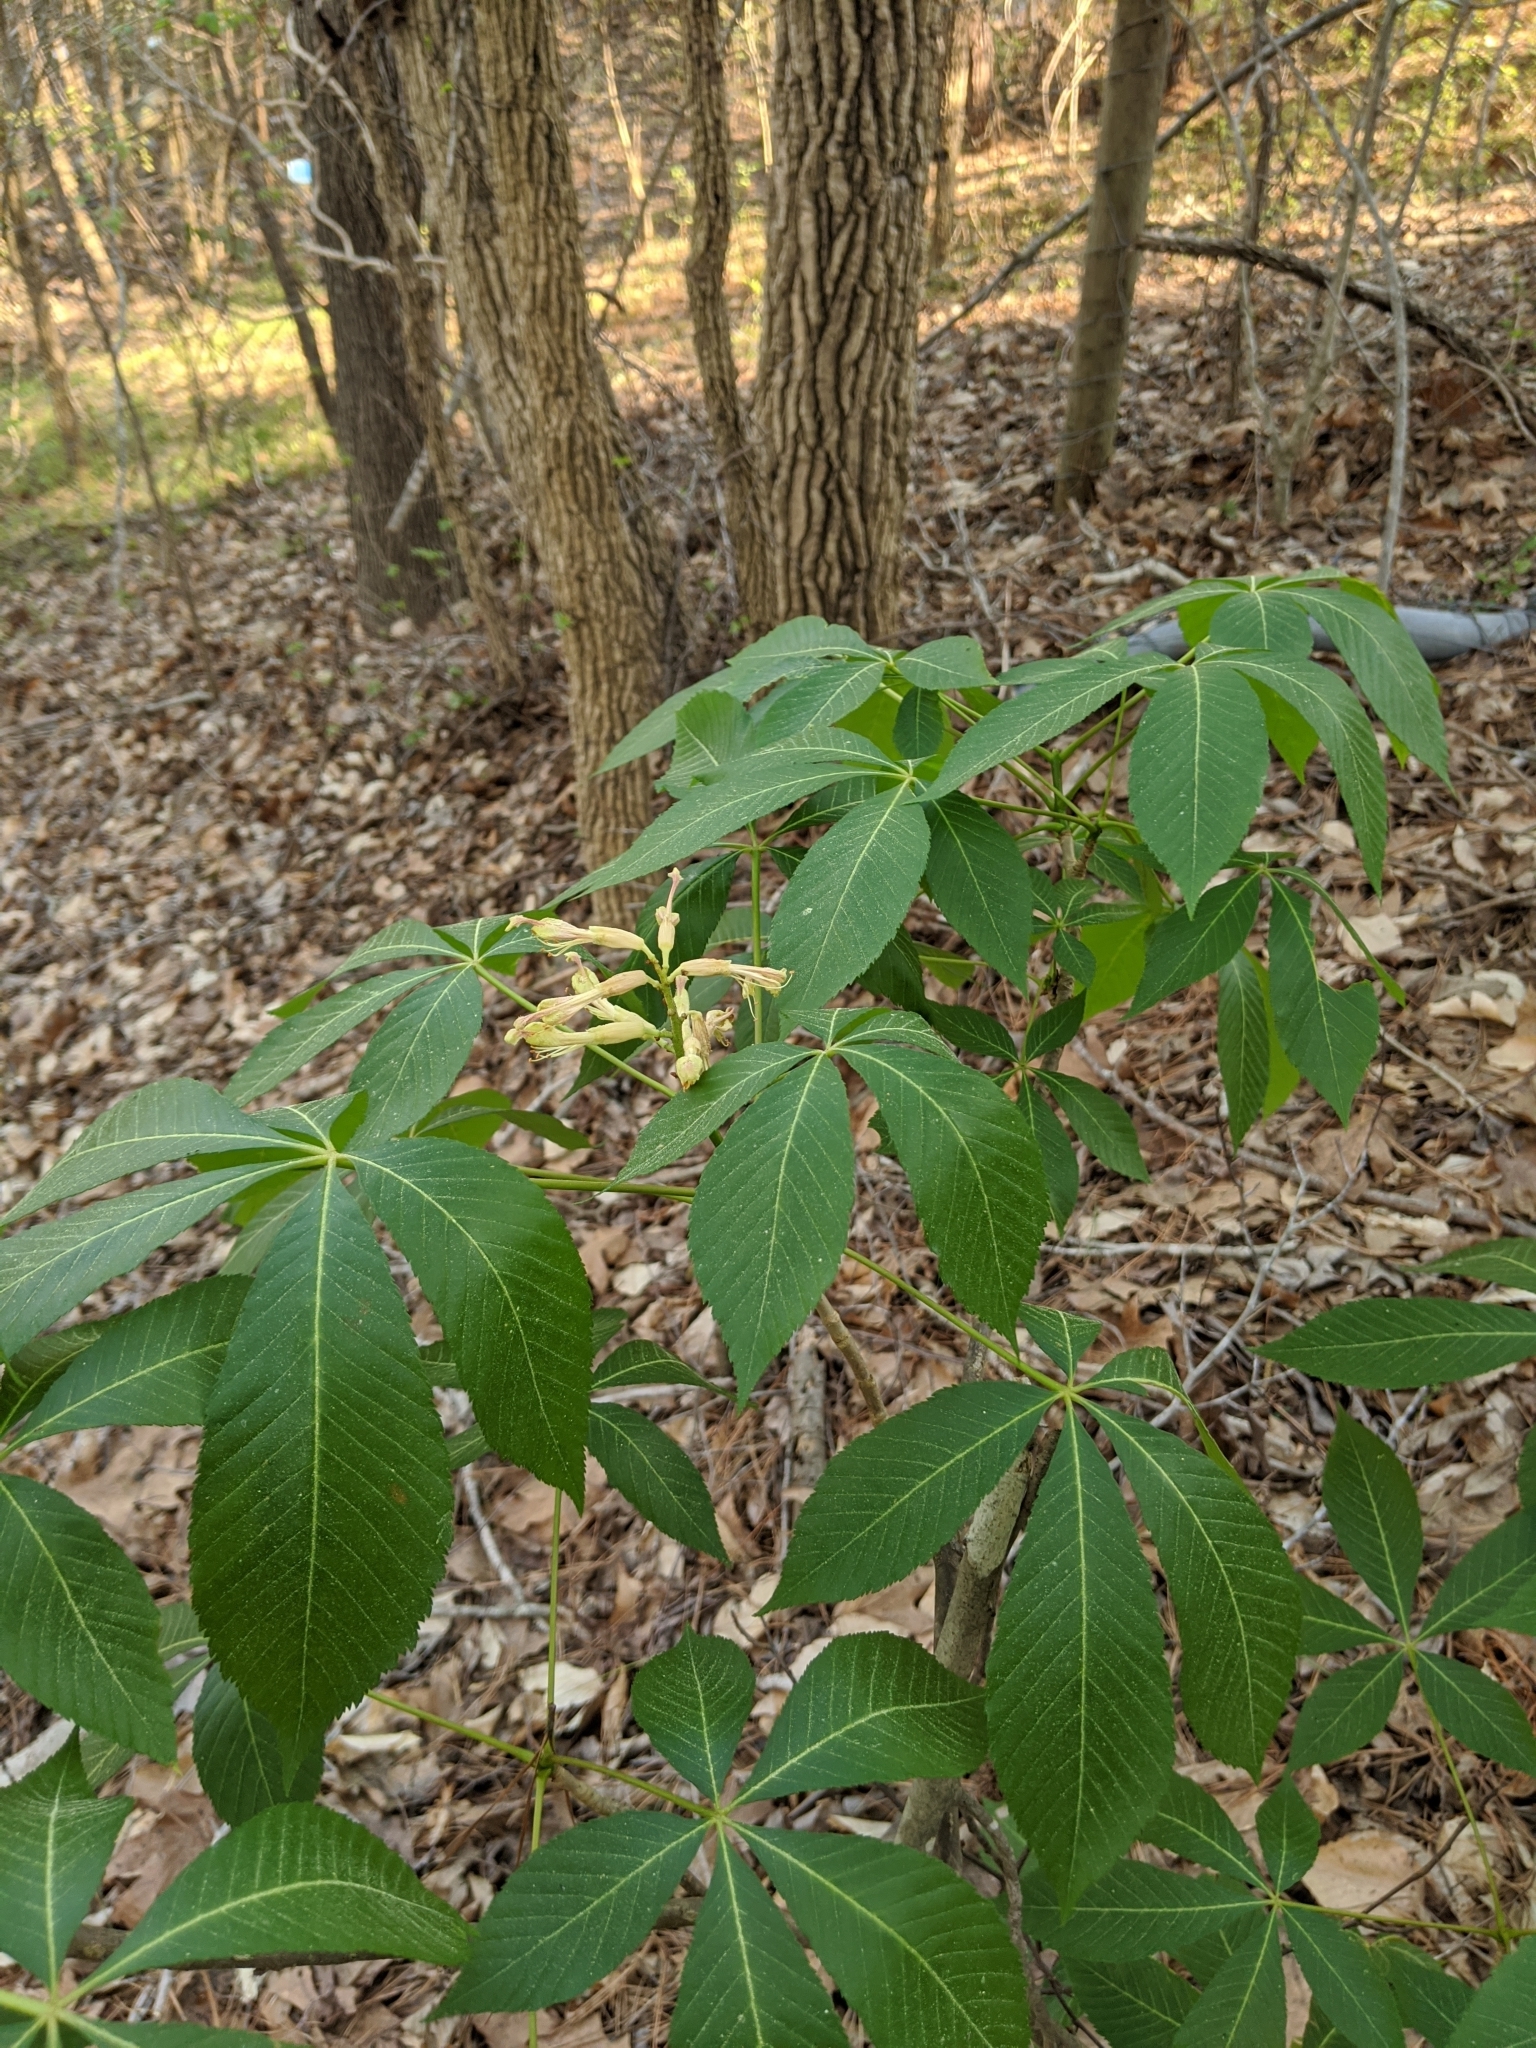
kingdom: Plantae
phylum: Tracheophyta
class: Magnoliopsida
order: Sapindales
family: Sapindaceae
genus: Aesculus
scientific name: Aesculus sylvatica
